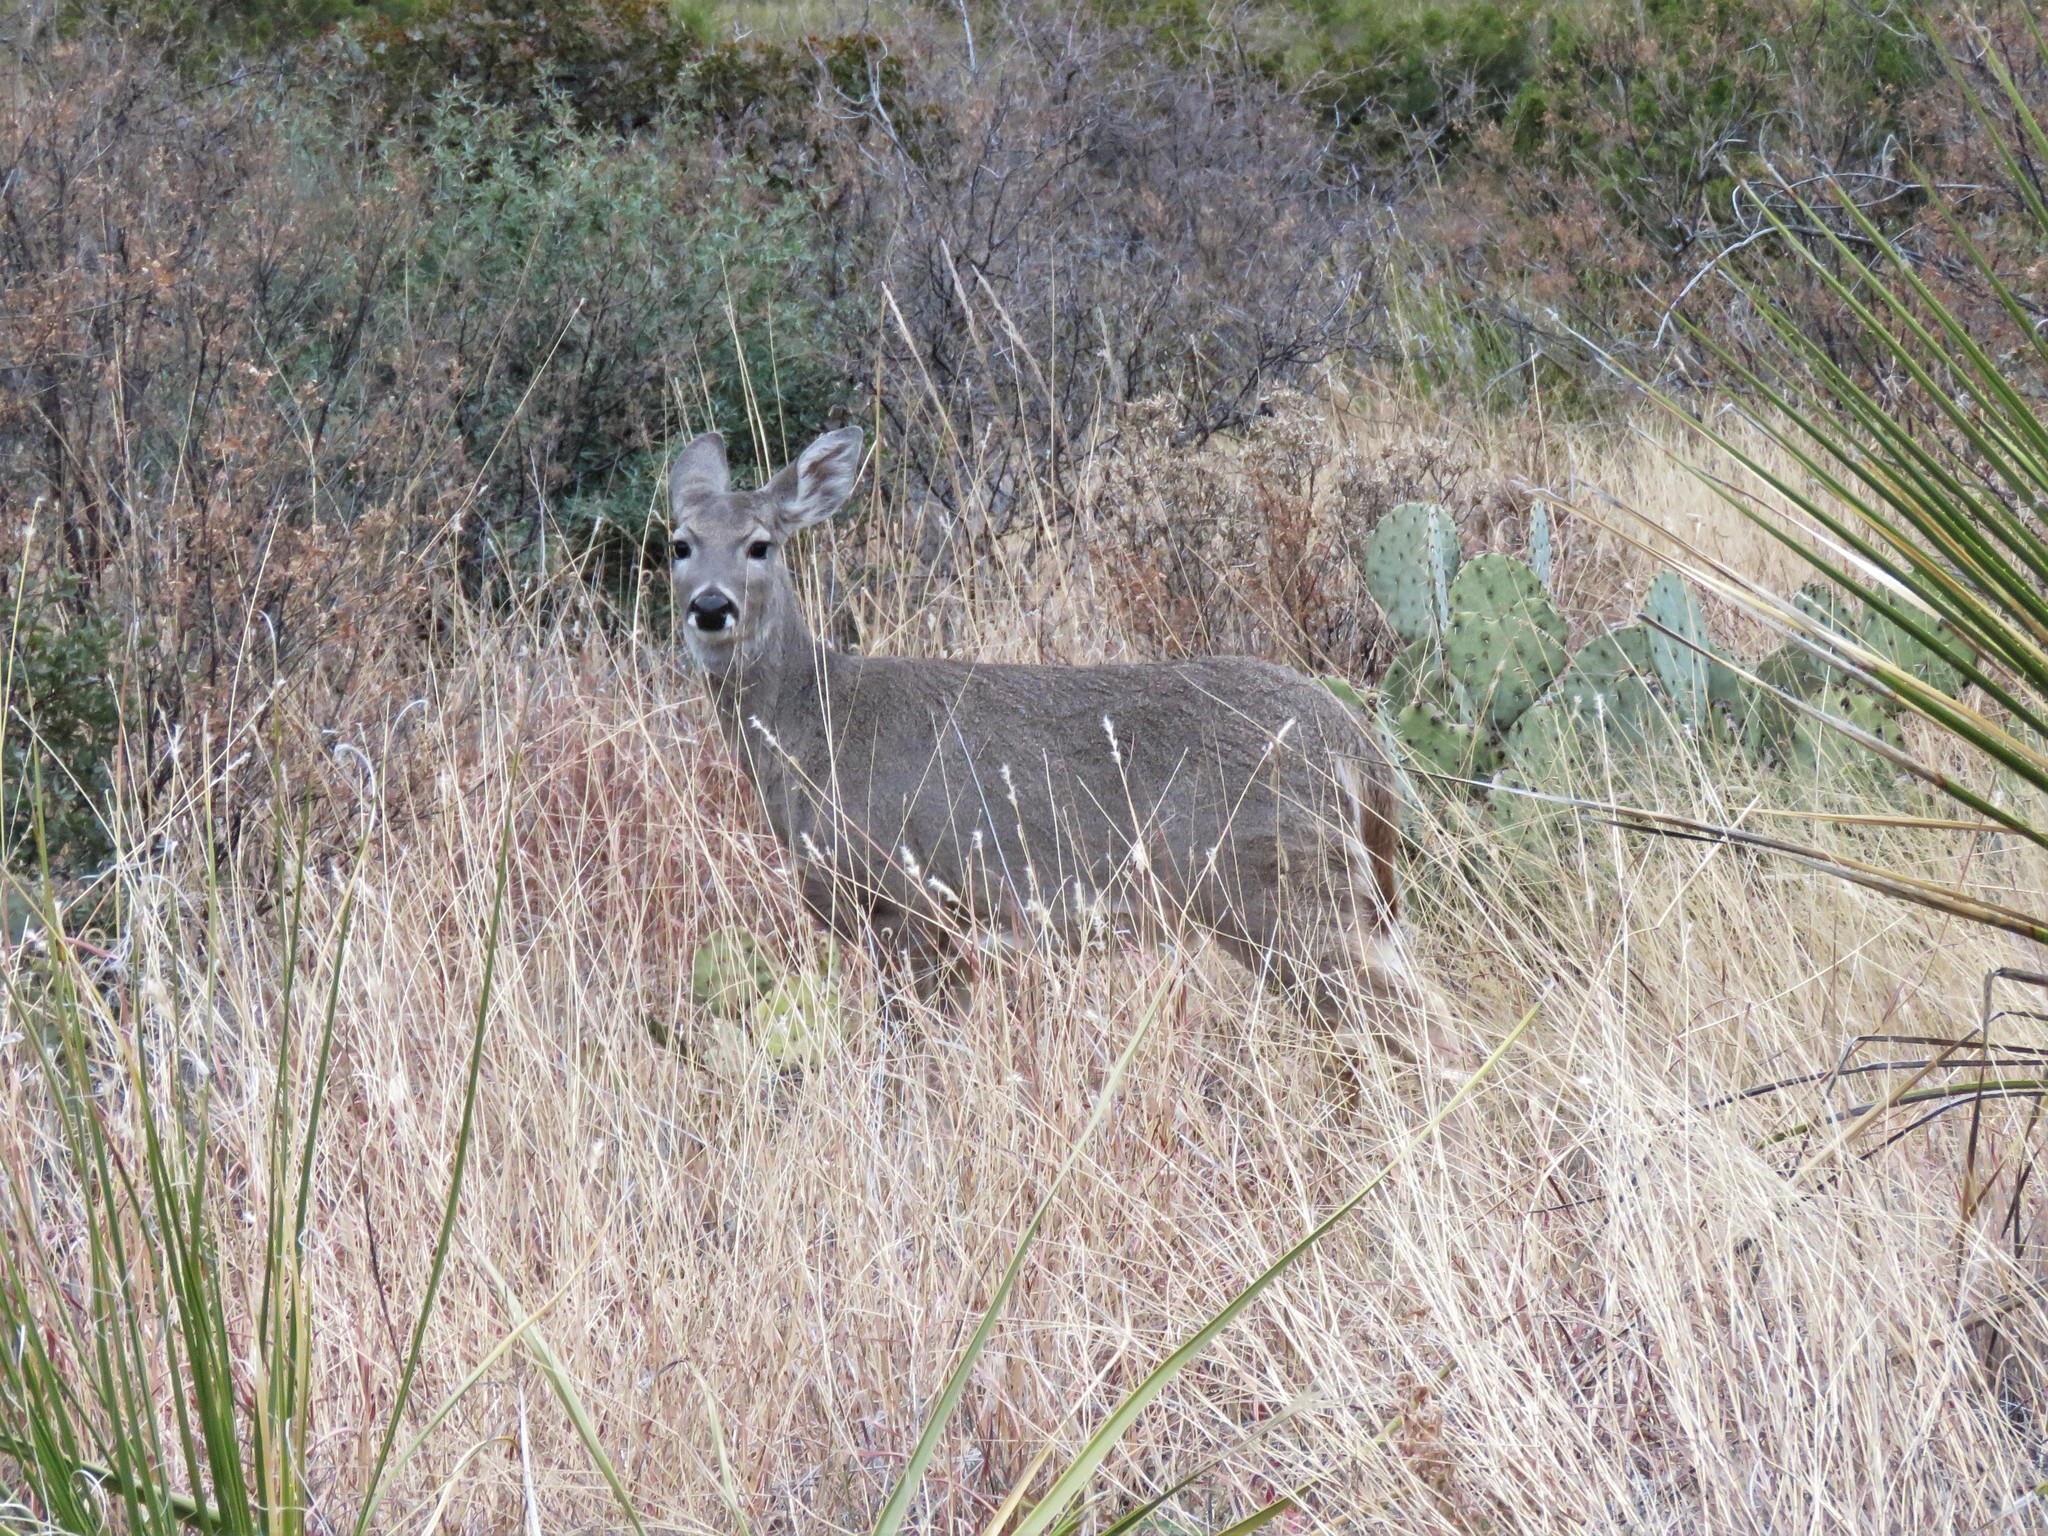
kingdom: Animalia
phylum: Chordata
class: Mammalia
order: Artiodactyla
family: Cervidae
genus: Odocoileus
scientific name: Odocoileus virginianus
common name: White-tailed deer
